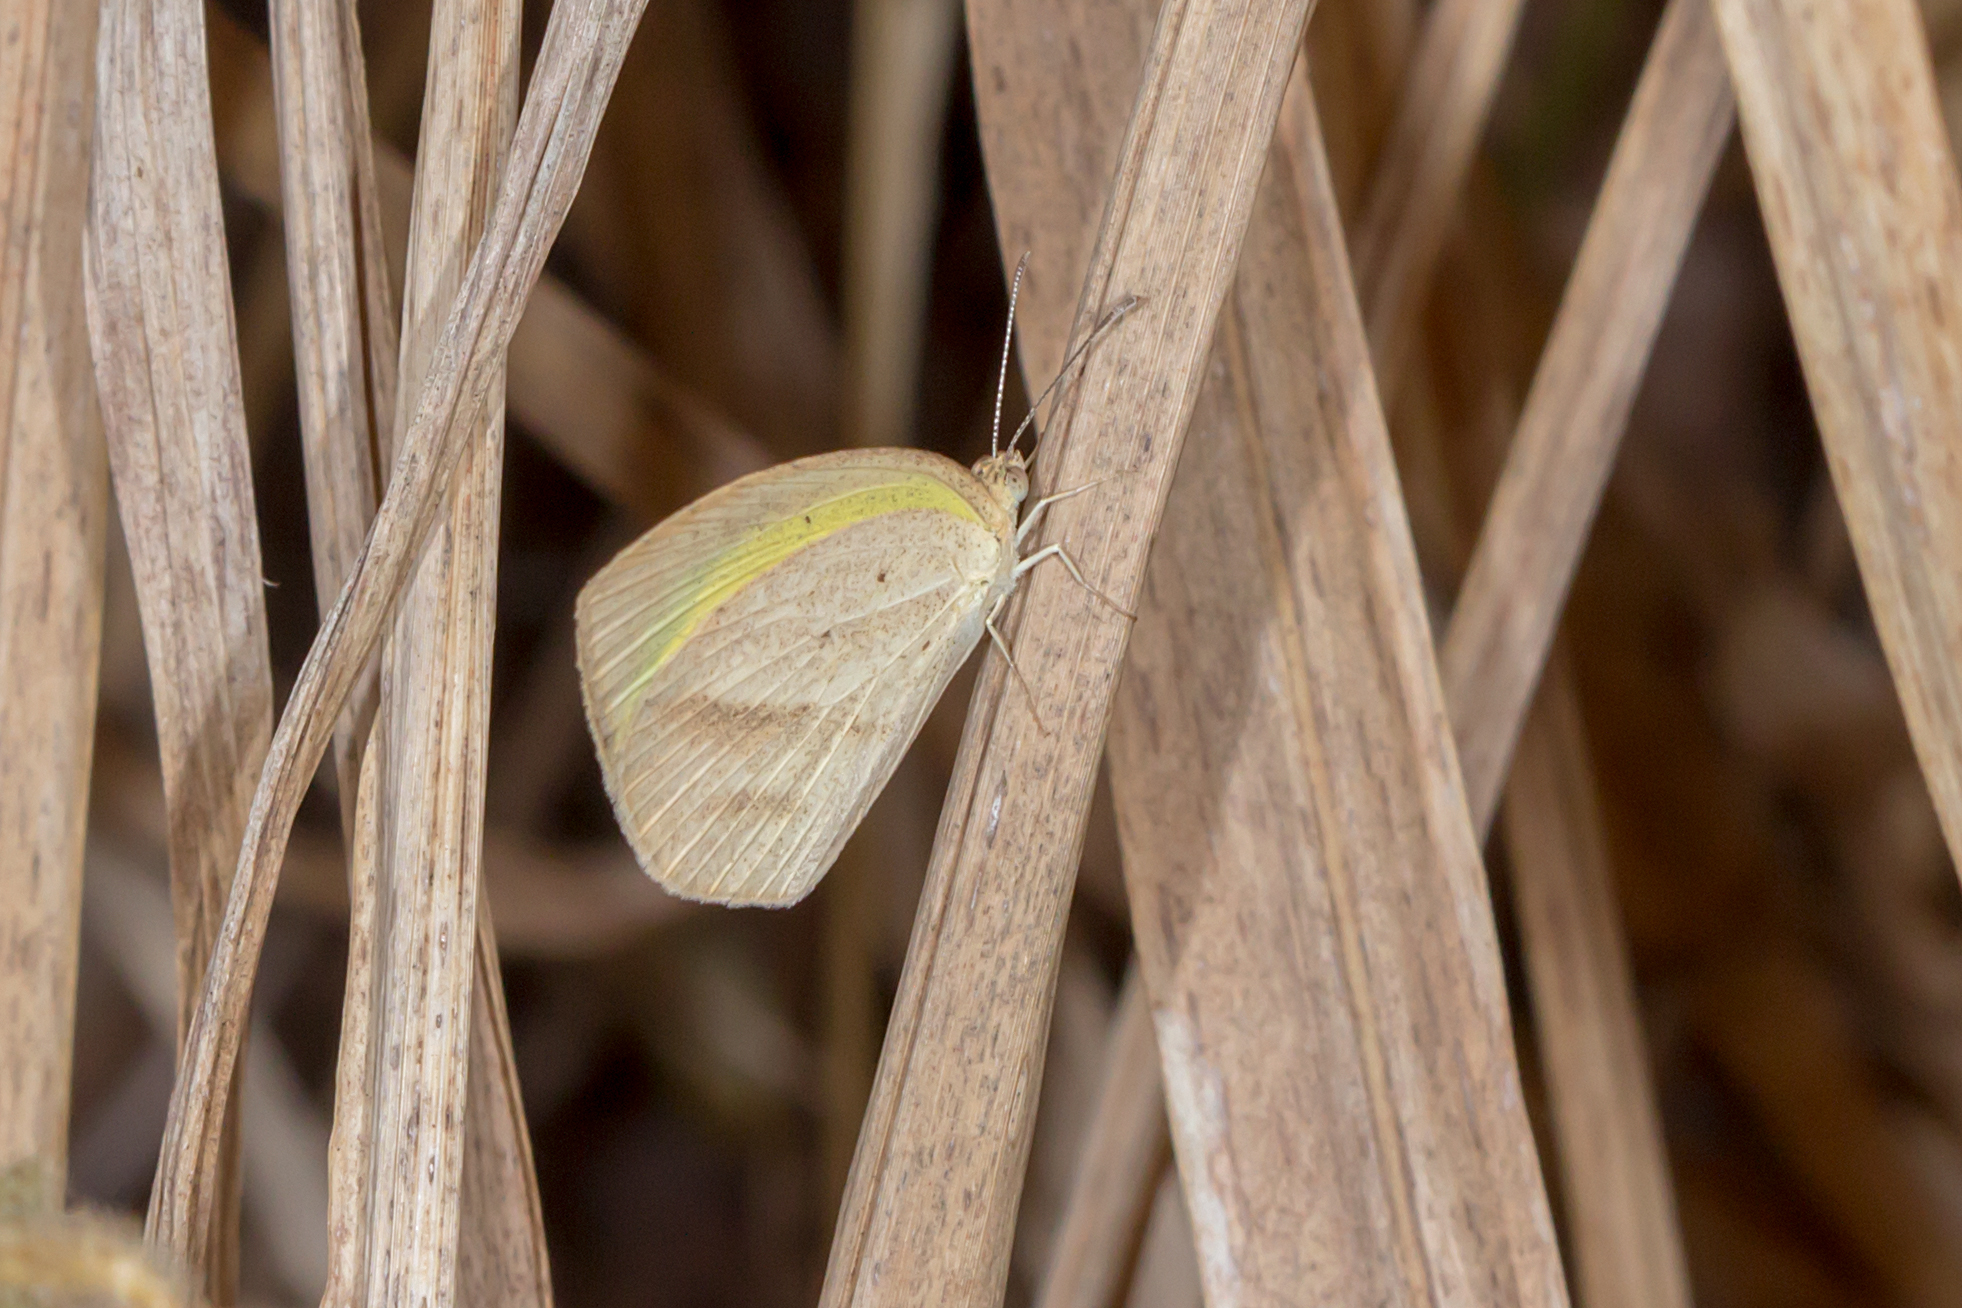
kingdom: Animalia
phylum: Arthropoda
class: Insecta
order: Lepidoptera
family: Pieridae
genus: Eurema
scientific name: Eurema herla
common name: Macleay's grass yellow
